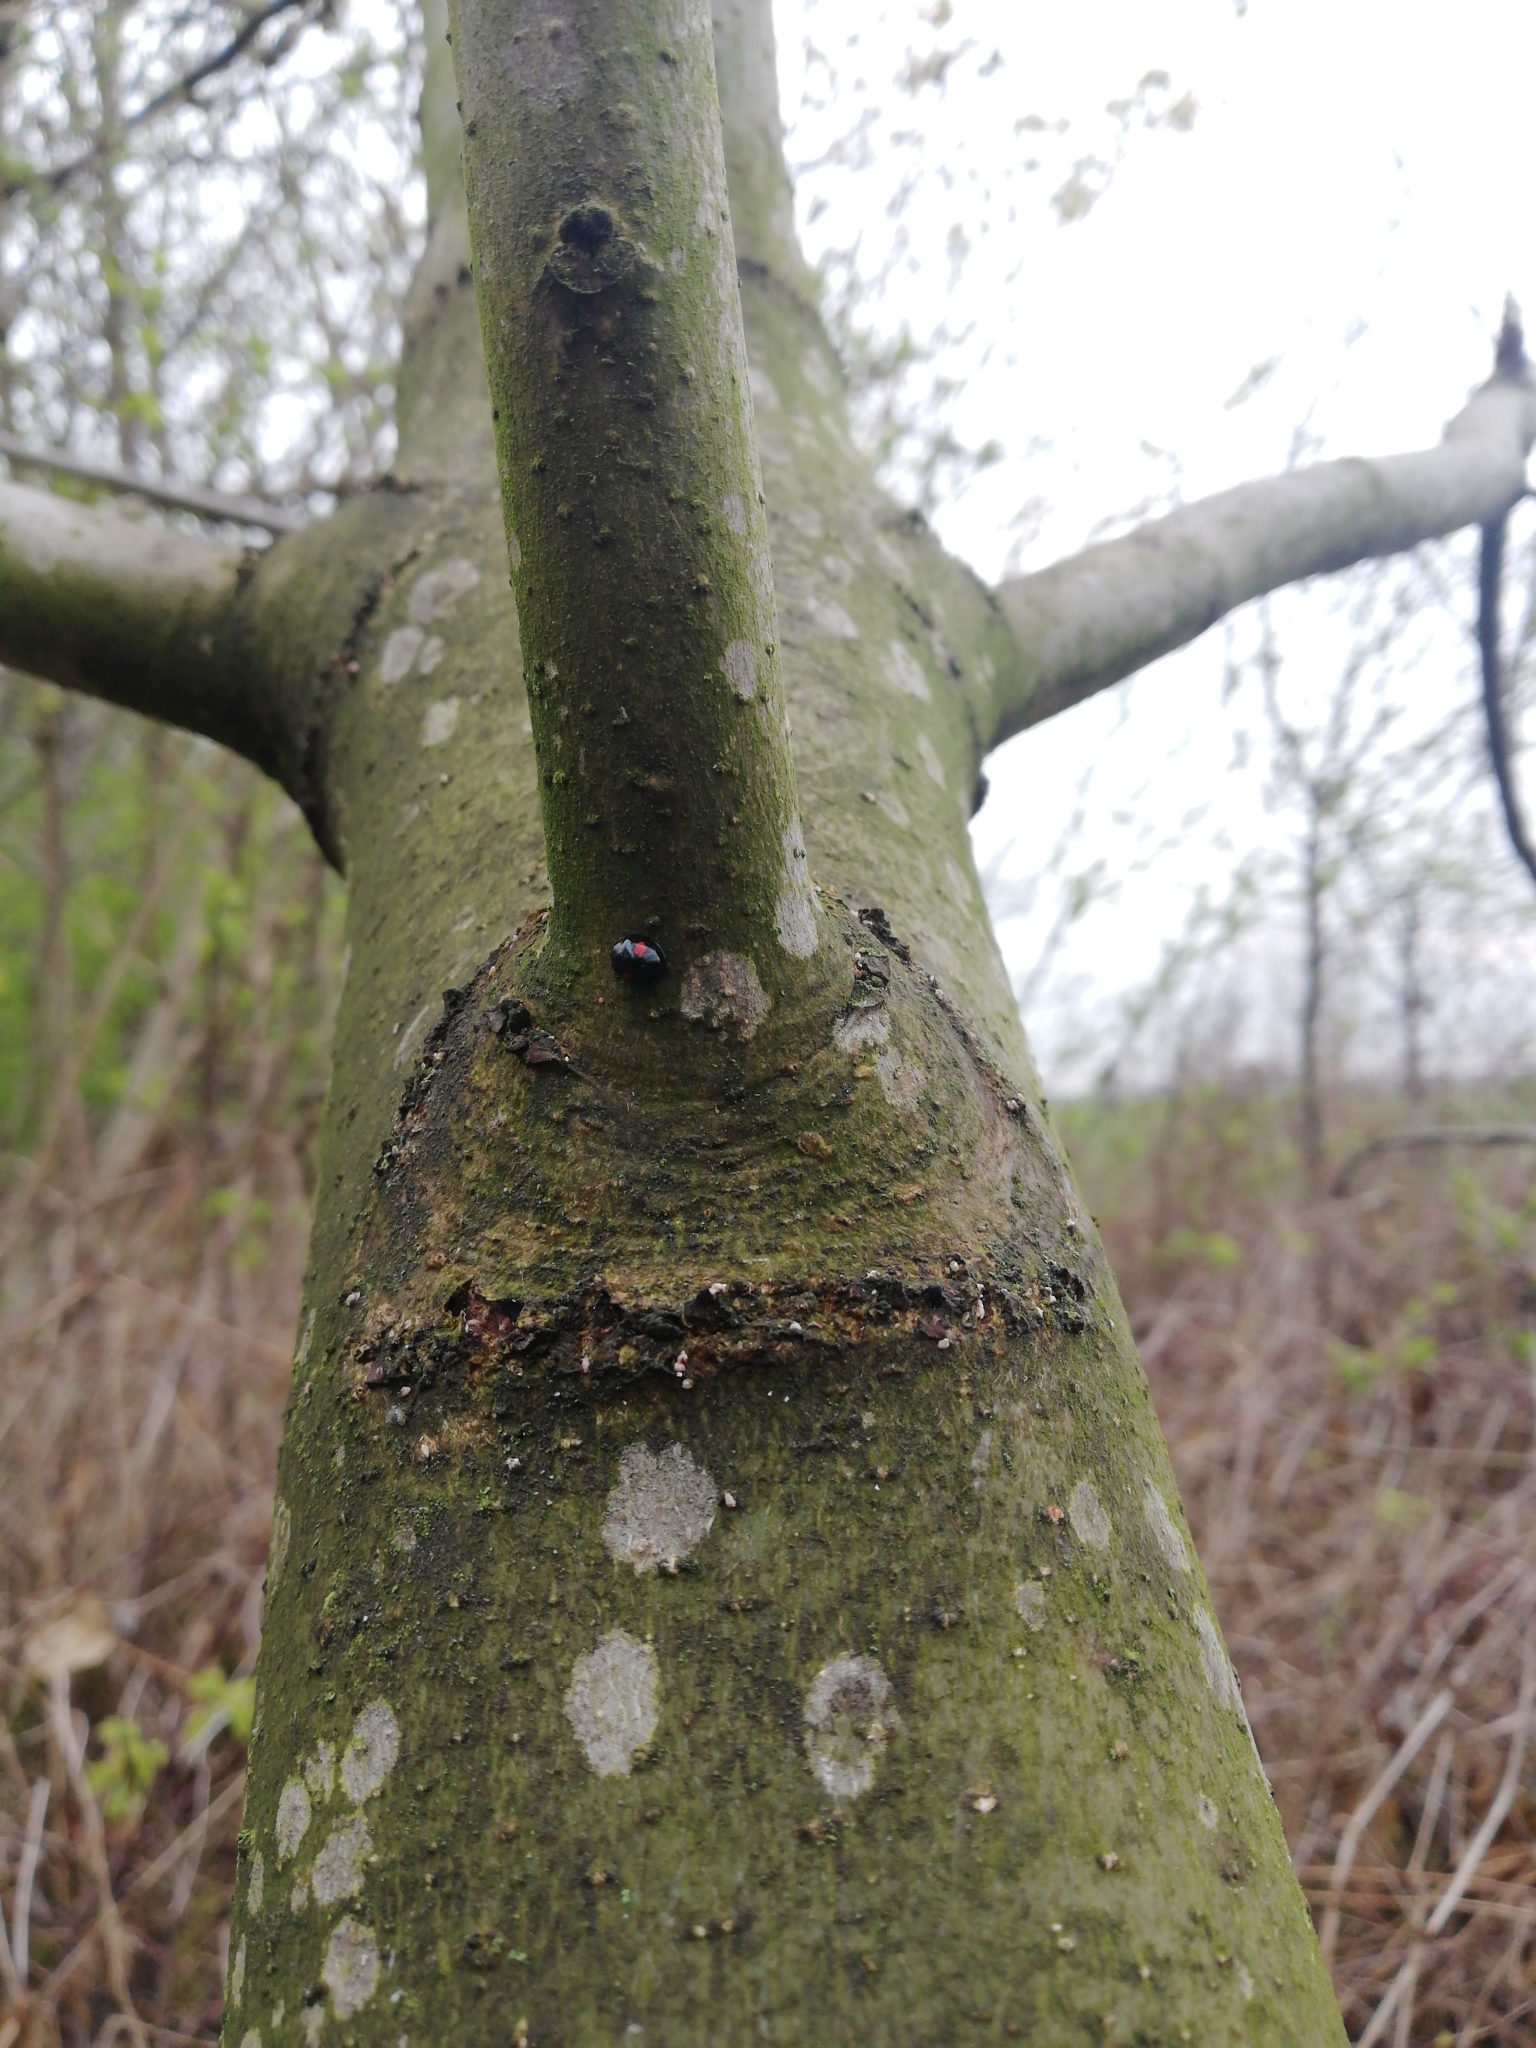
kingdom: Animalia
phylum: Arthropoda
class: Insecta
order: Coleoptera
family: Coccinellidae
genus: Chilocorus
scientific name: Chilocorus renipustulatus
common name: Kidney-spot ladybird
